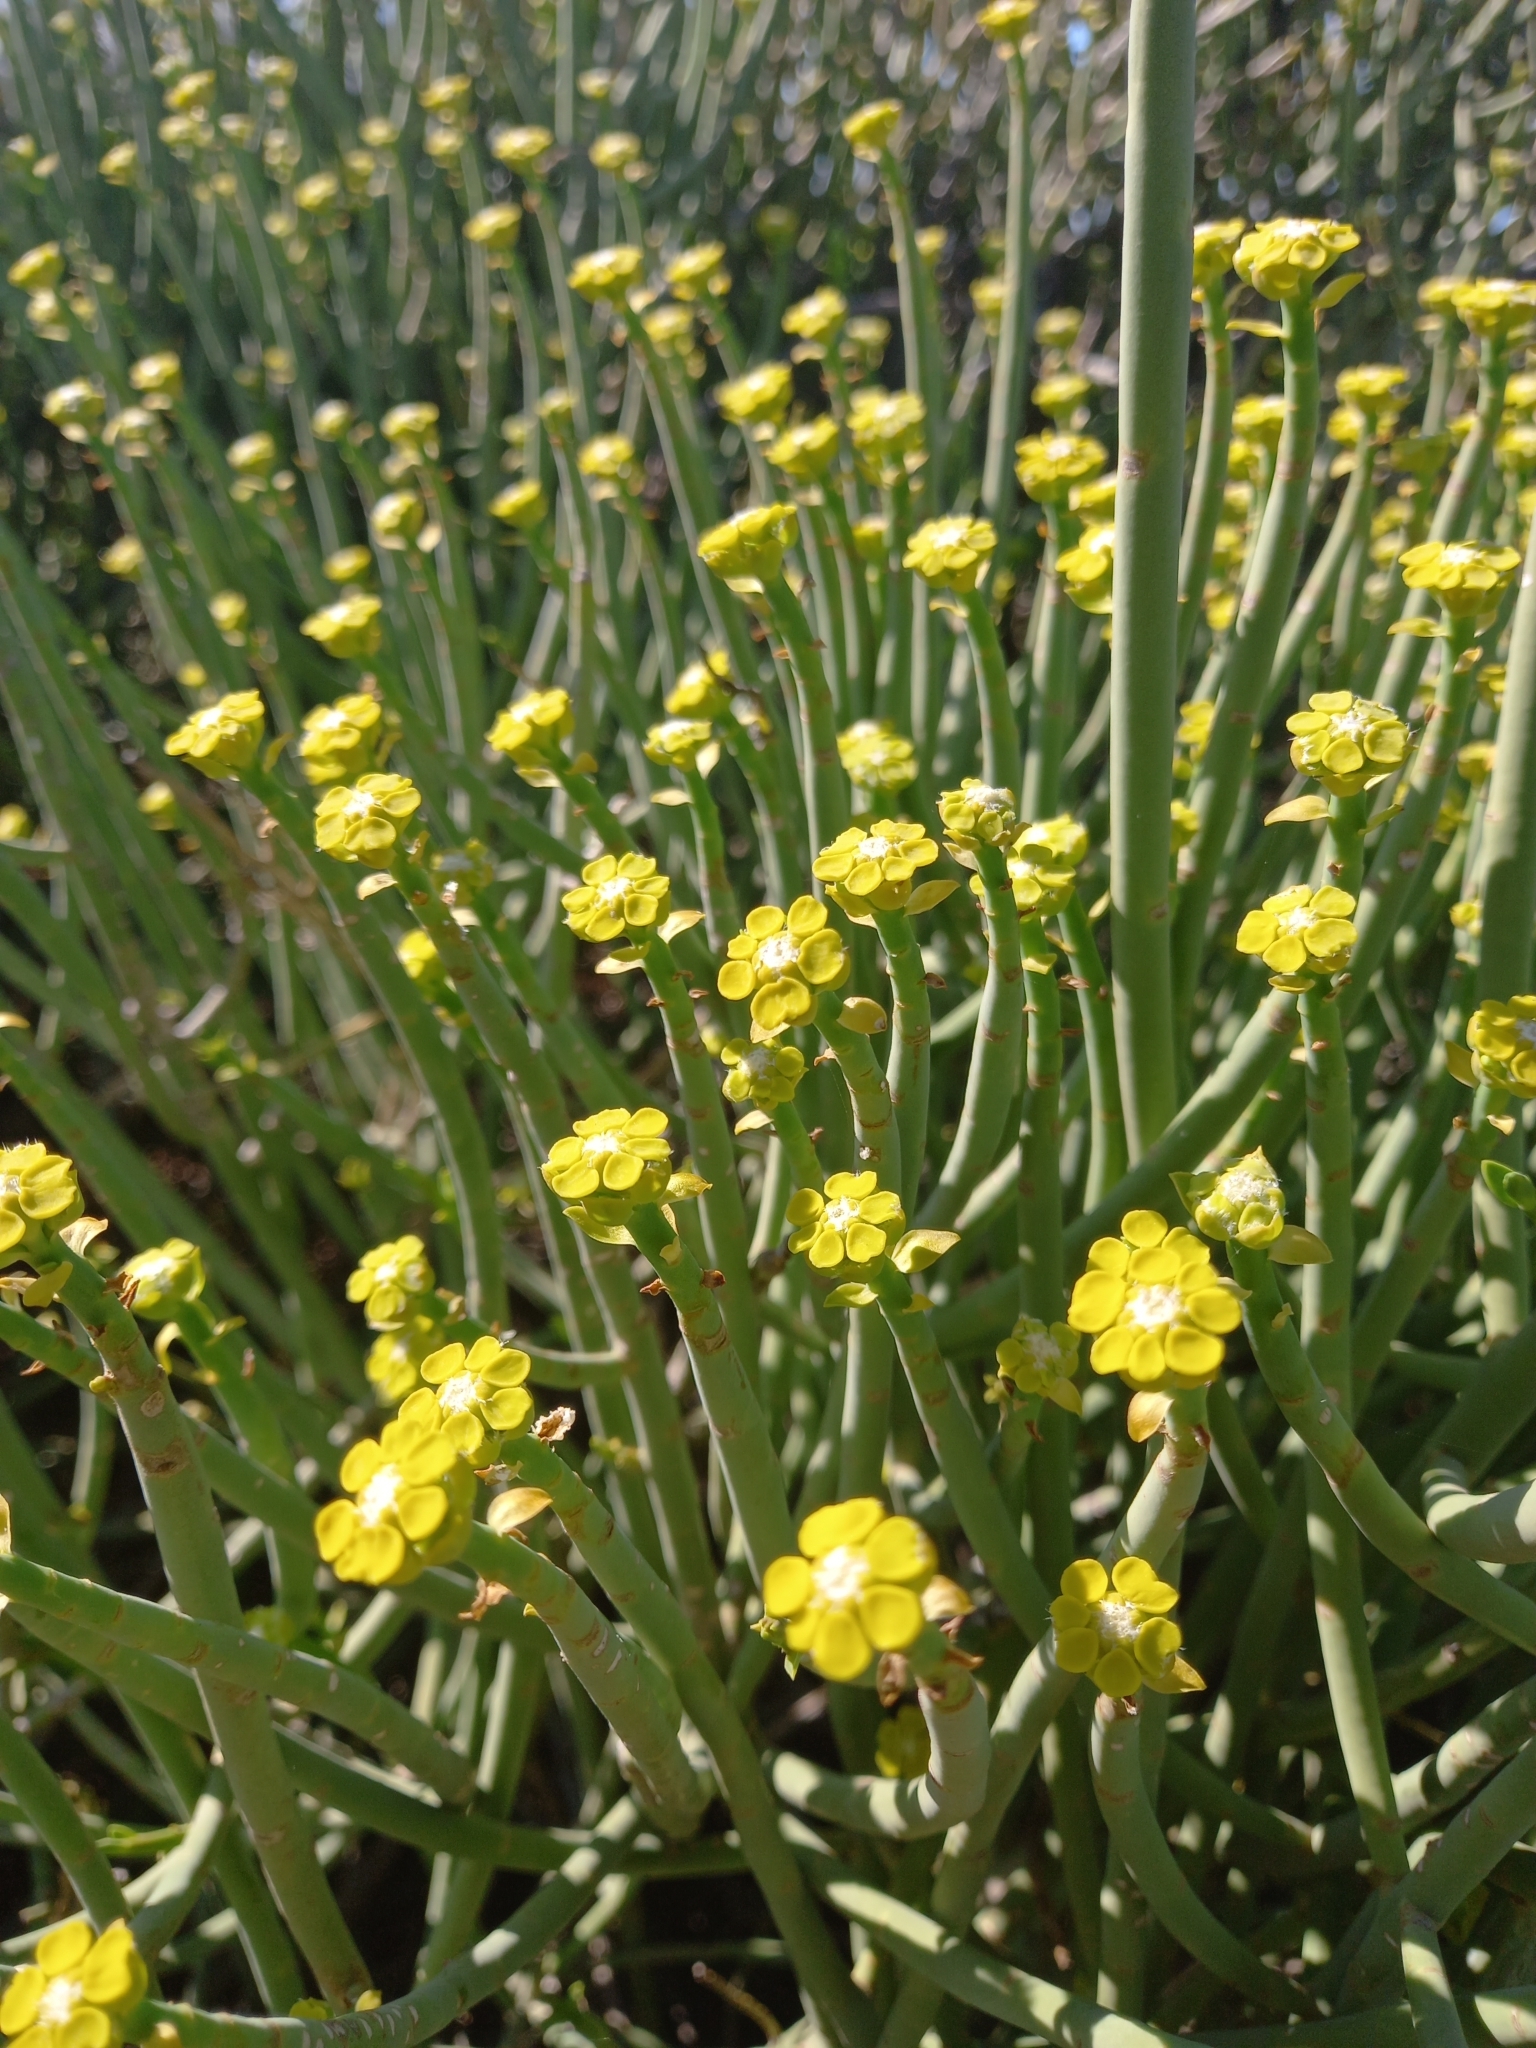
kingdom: Plantae
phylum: Tracheophyta
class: Magnoliopsida
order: Malpighiales
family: Euphorbiaceae
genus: Euphorbia
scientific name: Euphorbia mauritanica
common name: Jackal's-food
